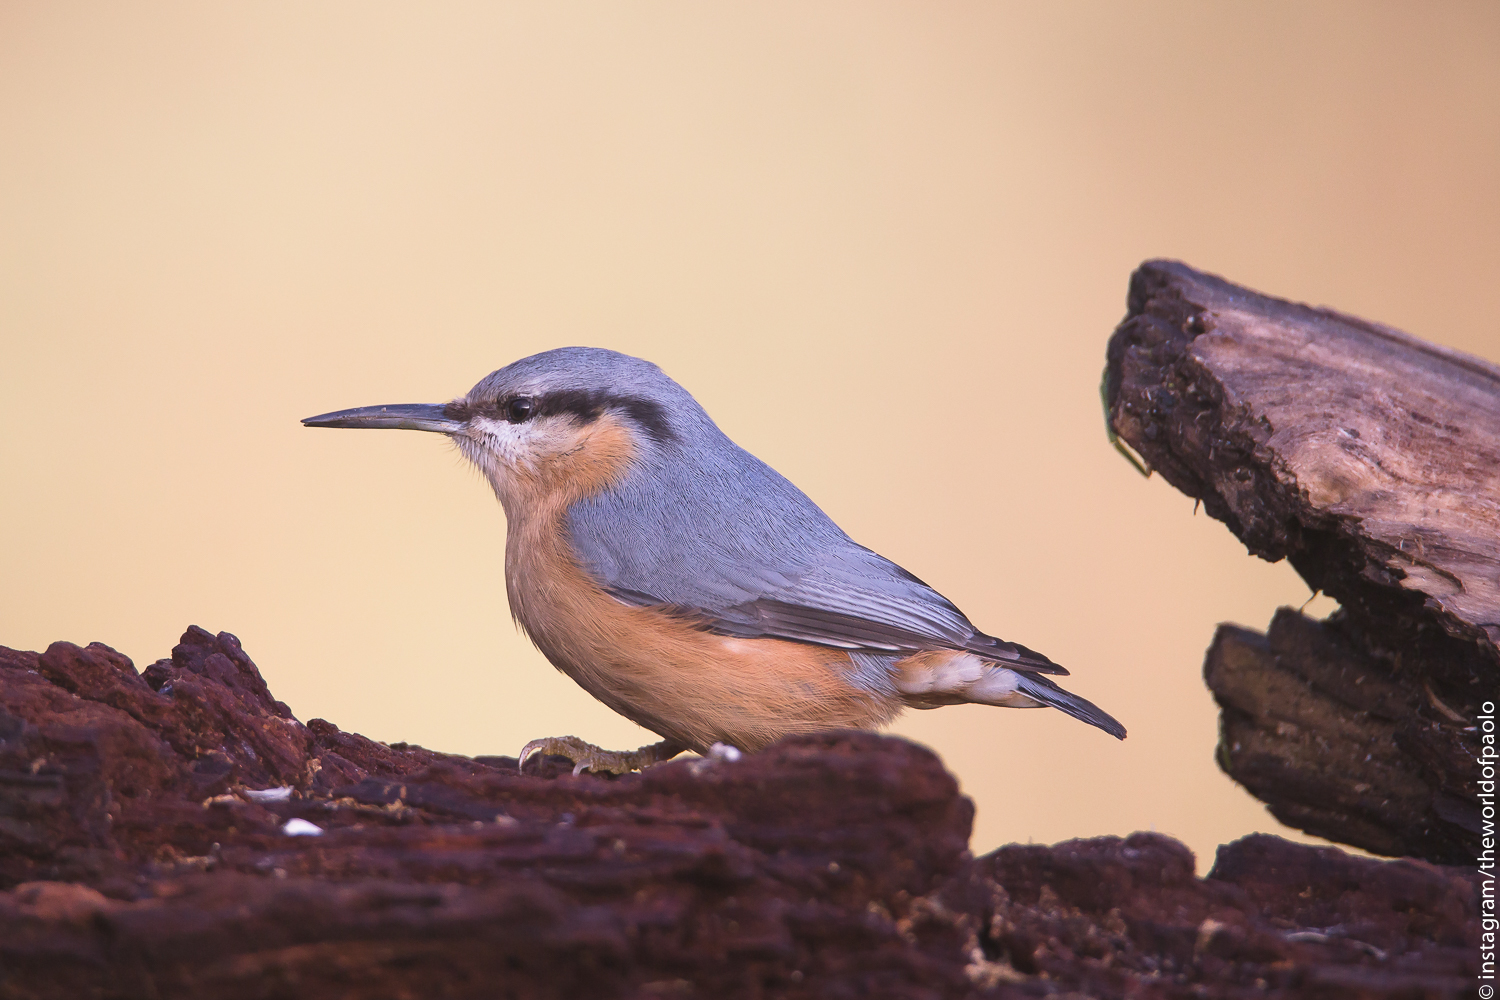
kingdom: Animalia
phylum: Chordata
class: Aves
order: Passeriformes
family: Sittidae
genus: Sitta
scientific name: Sitta europaea
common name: Eurasian nuthatch
